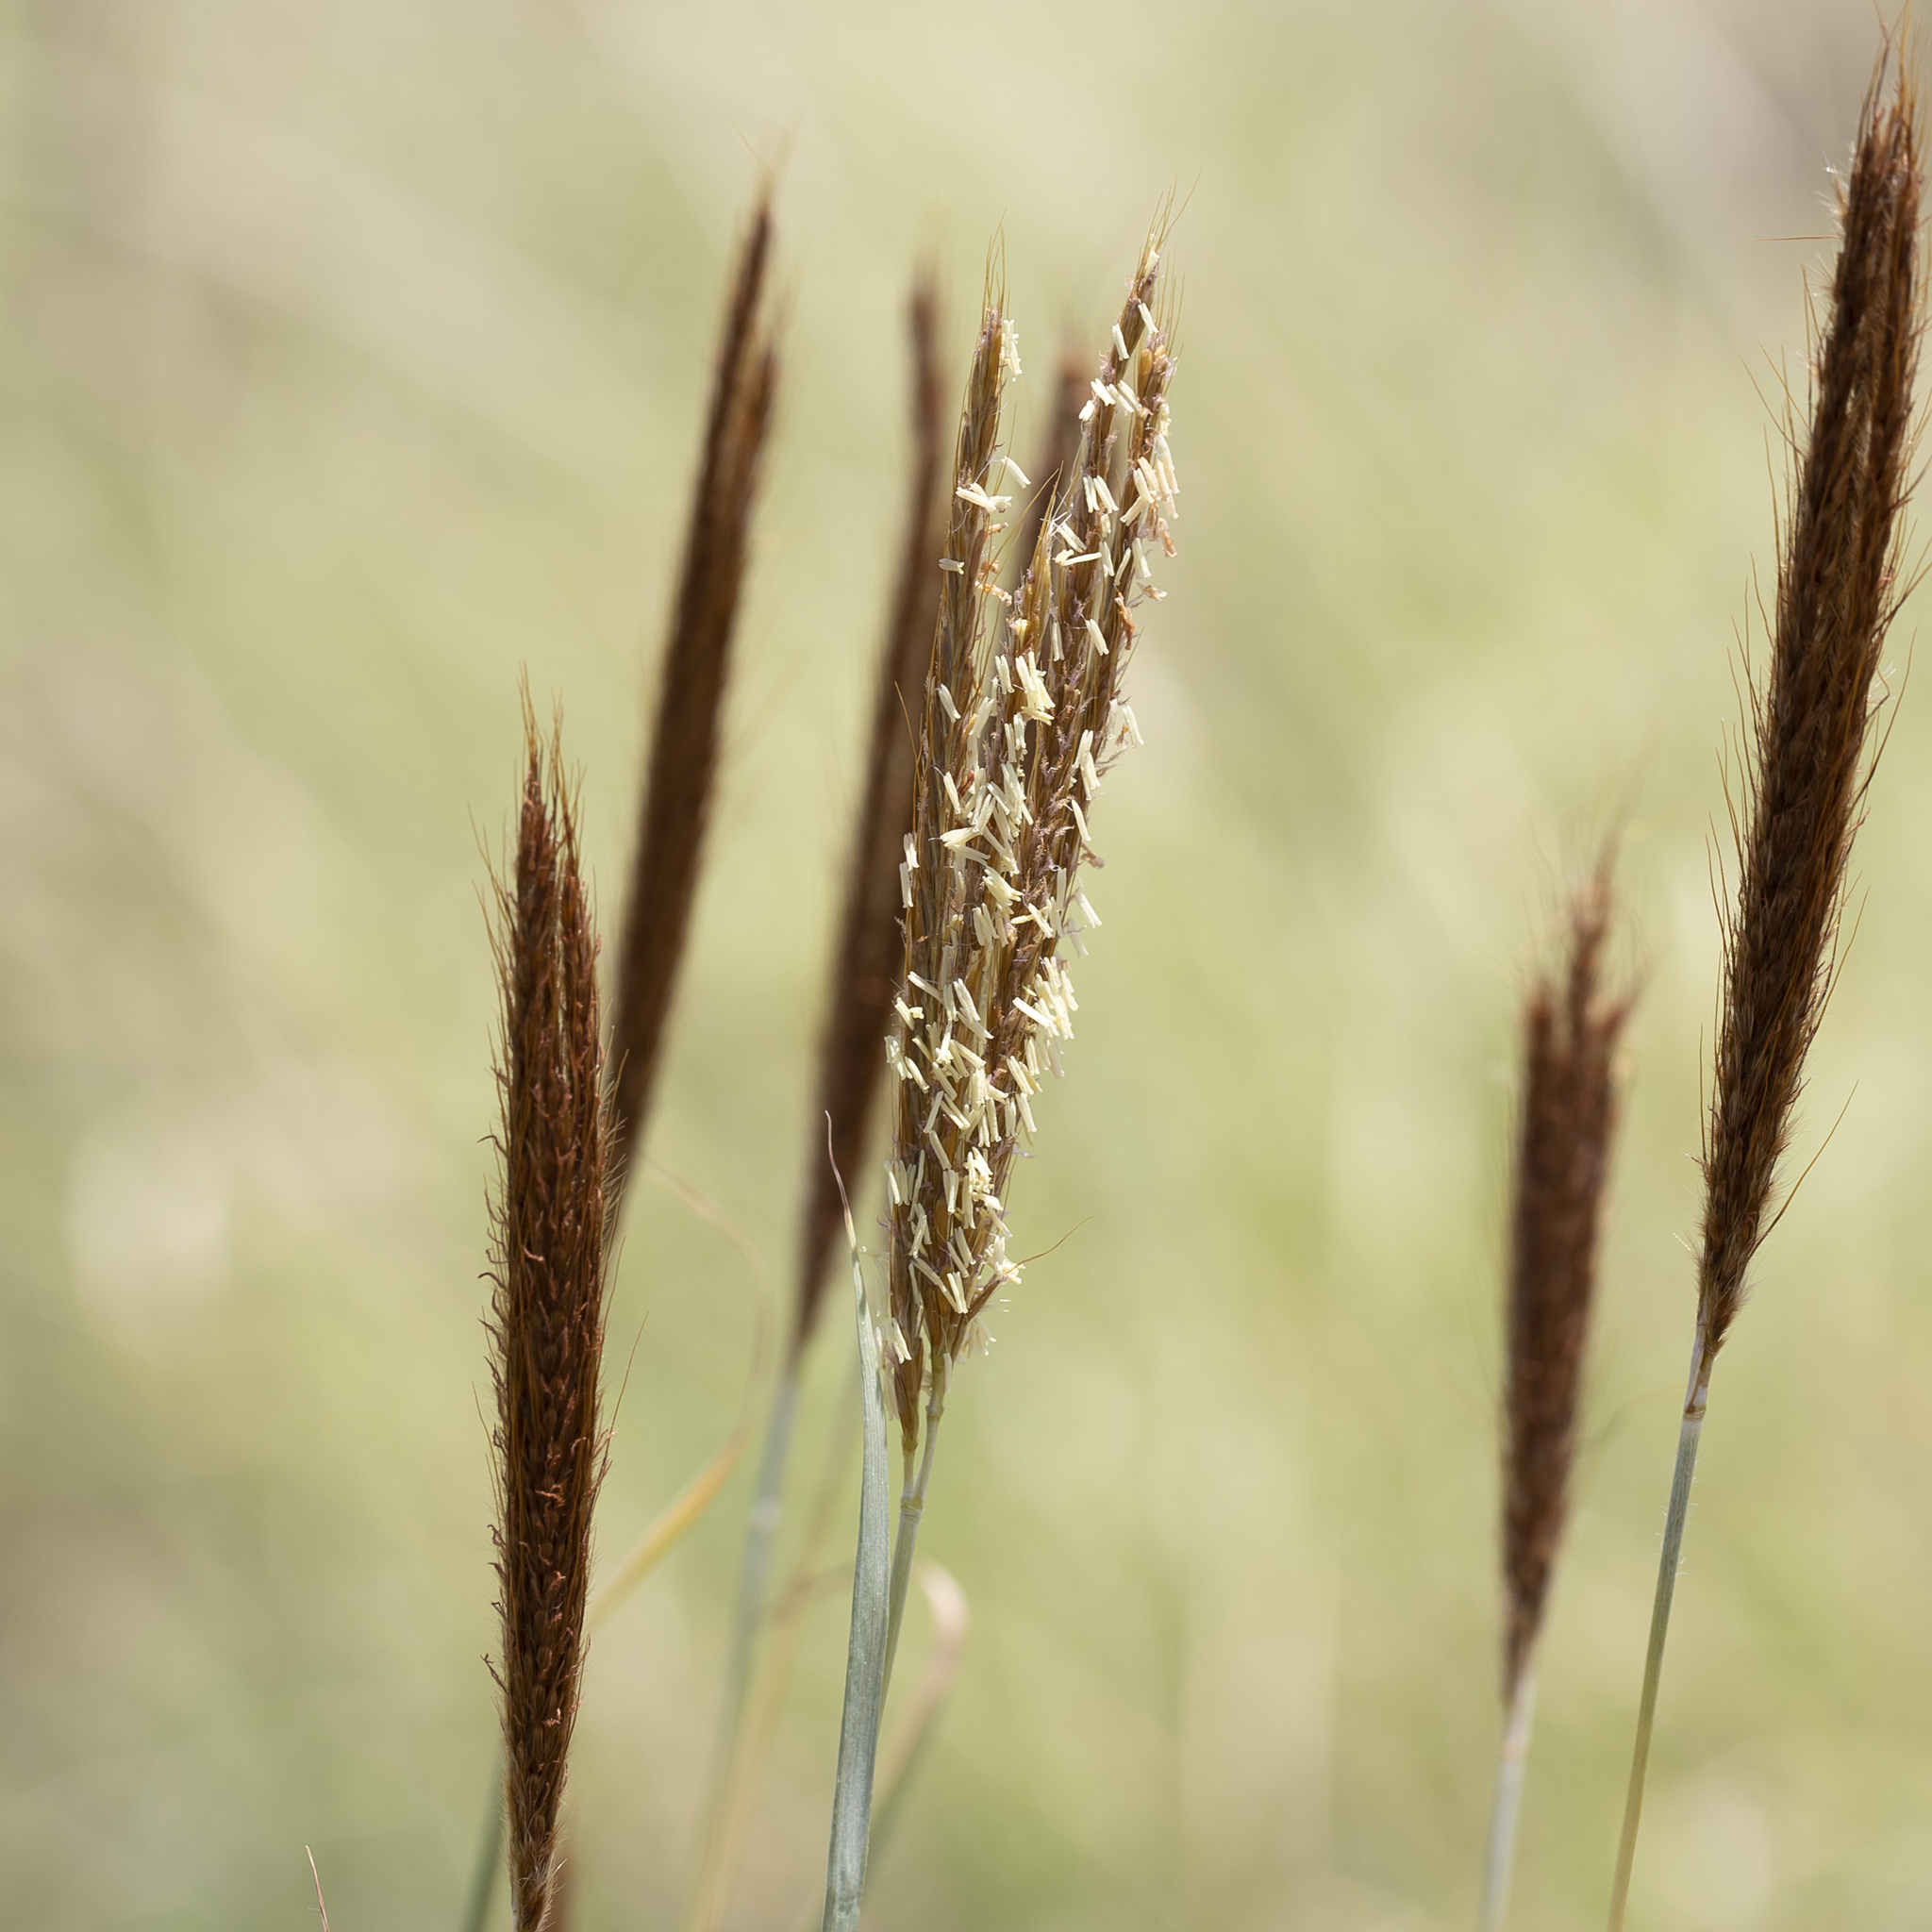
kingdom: Plantae
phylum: Tracheophyta
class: Liliopsida
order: Poales
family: Poaceae
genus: Eulalia
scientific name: Eulalia aurea
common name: Silky browntop
